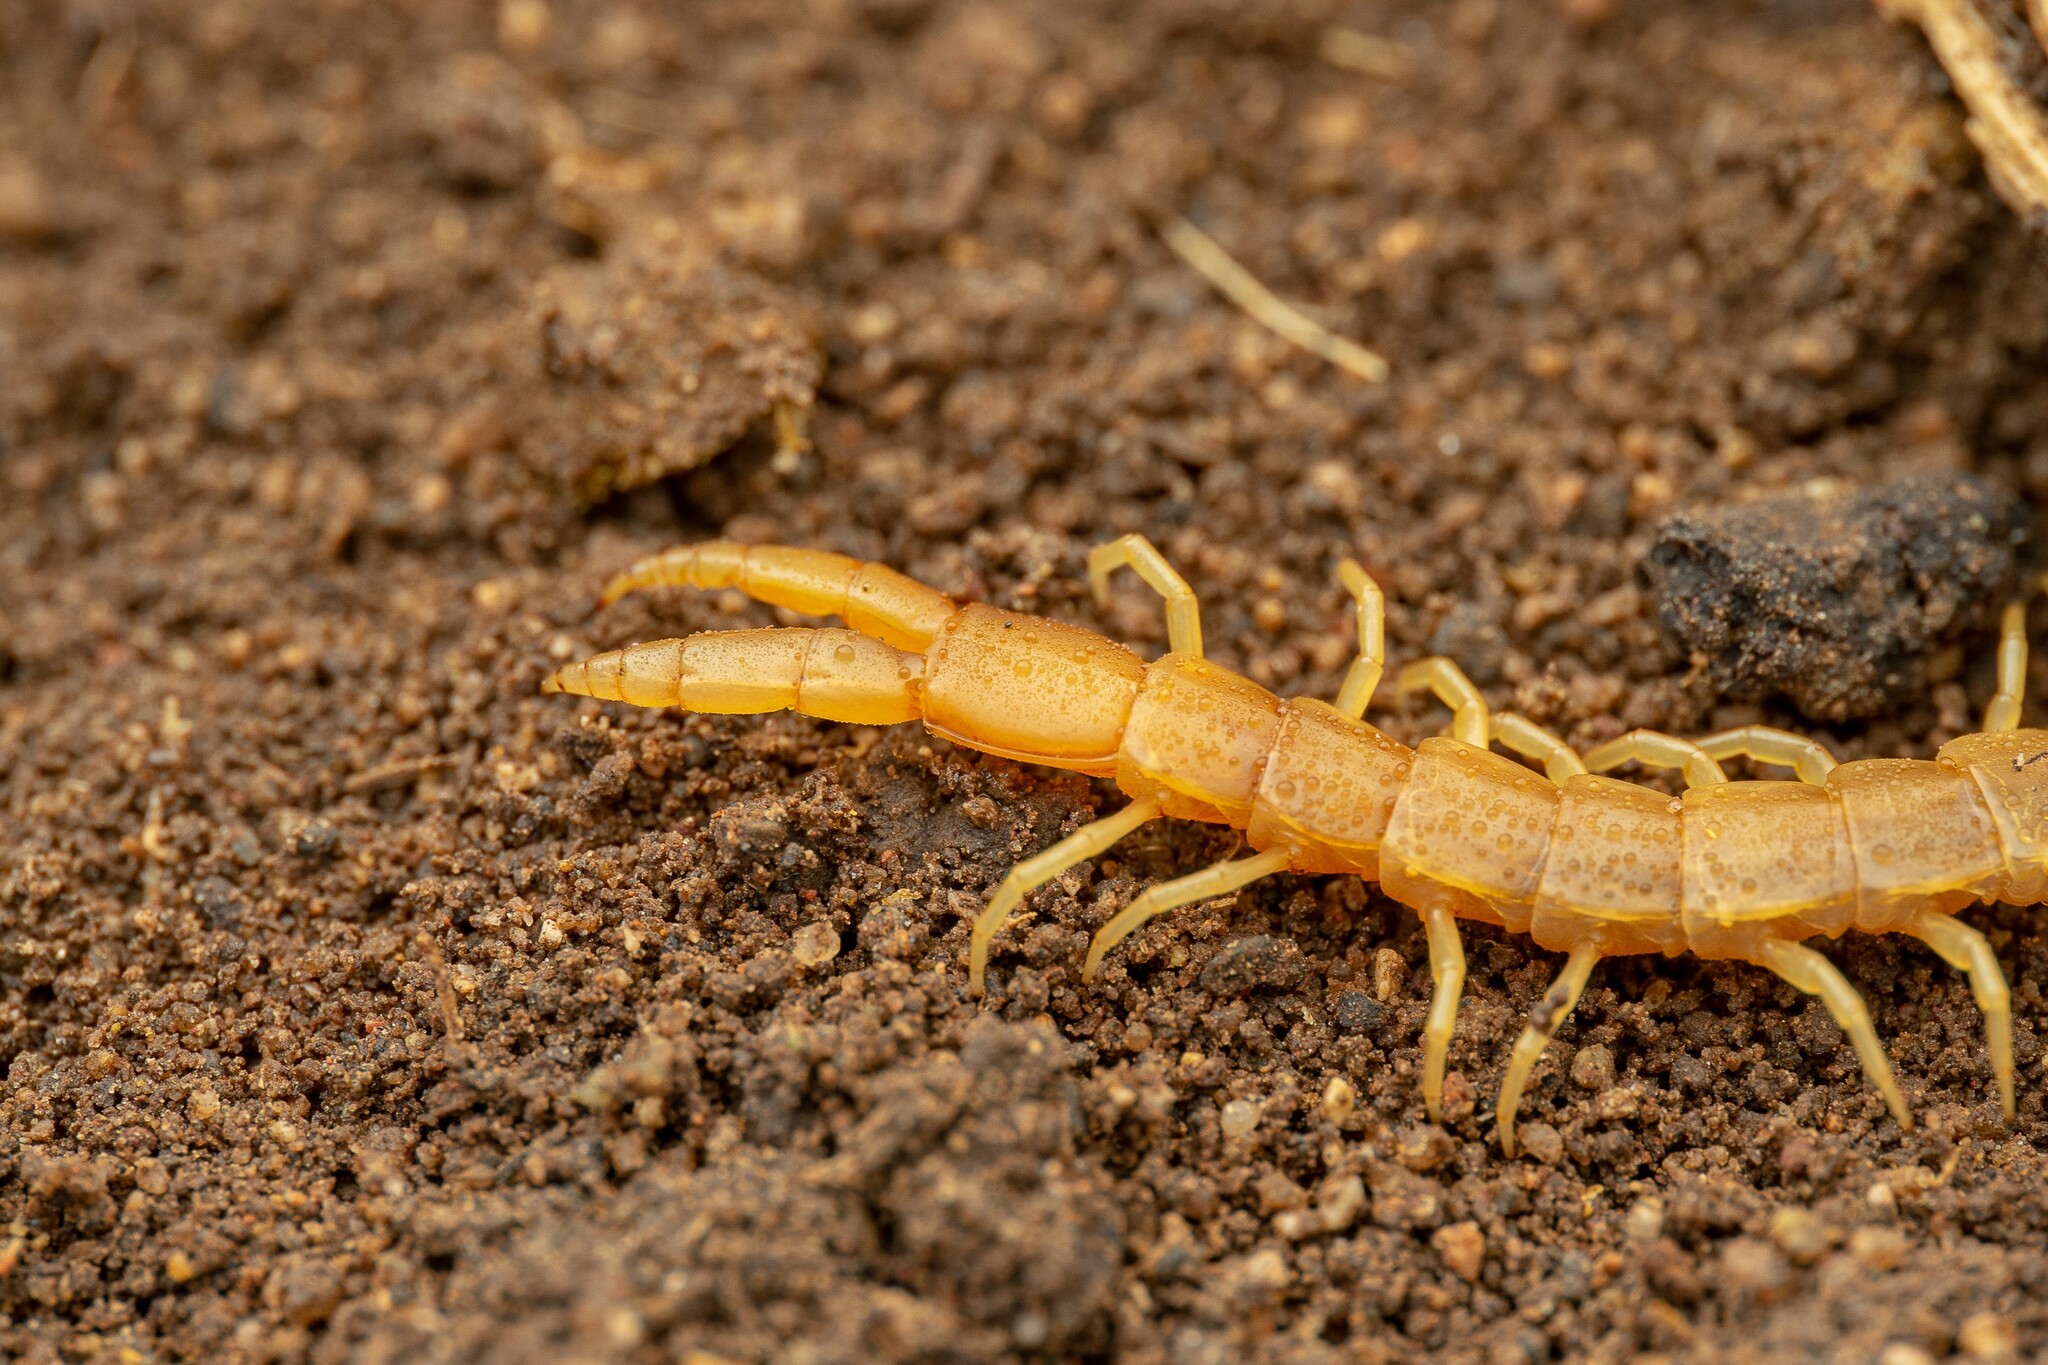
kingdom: Animalia
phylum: Arthropoda
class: Chilopoda
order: Scolopendromorpha
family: Cryptopidae
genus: Theatops
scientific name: Theatops posticus
